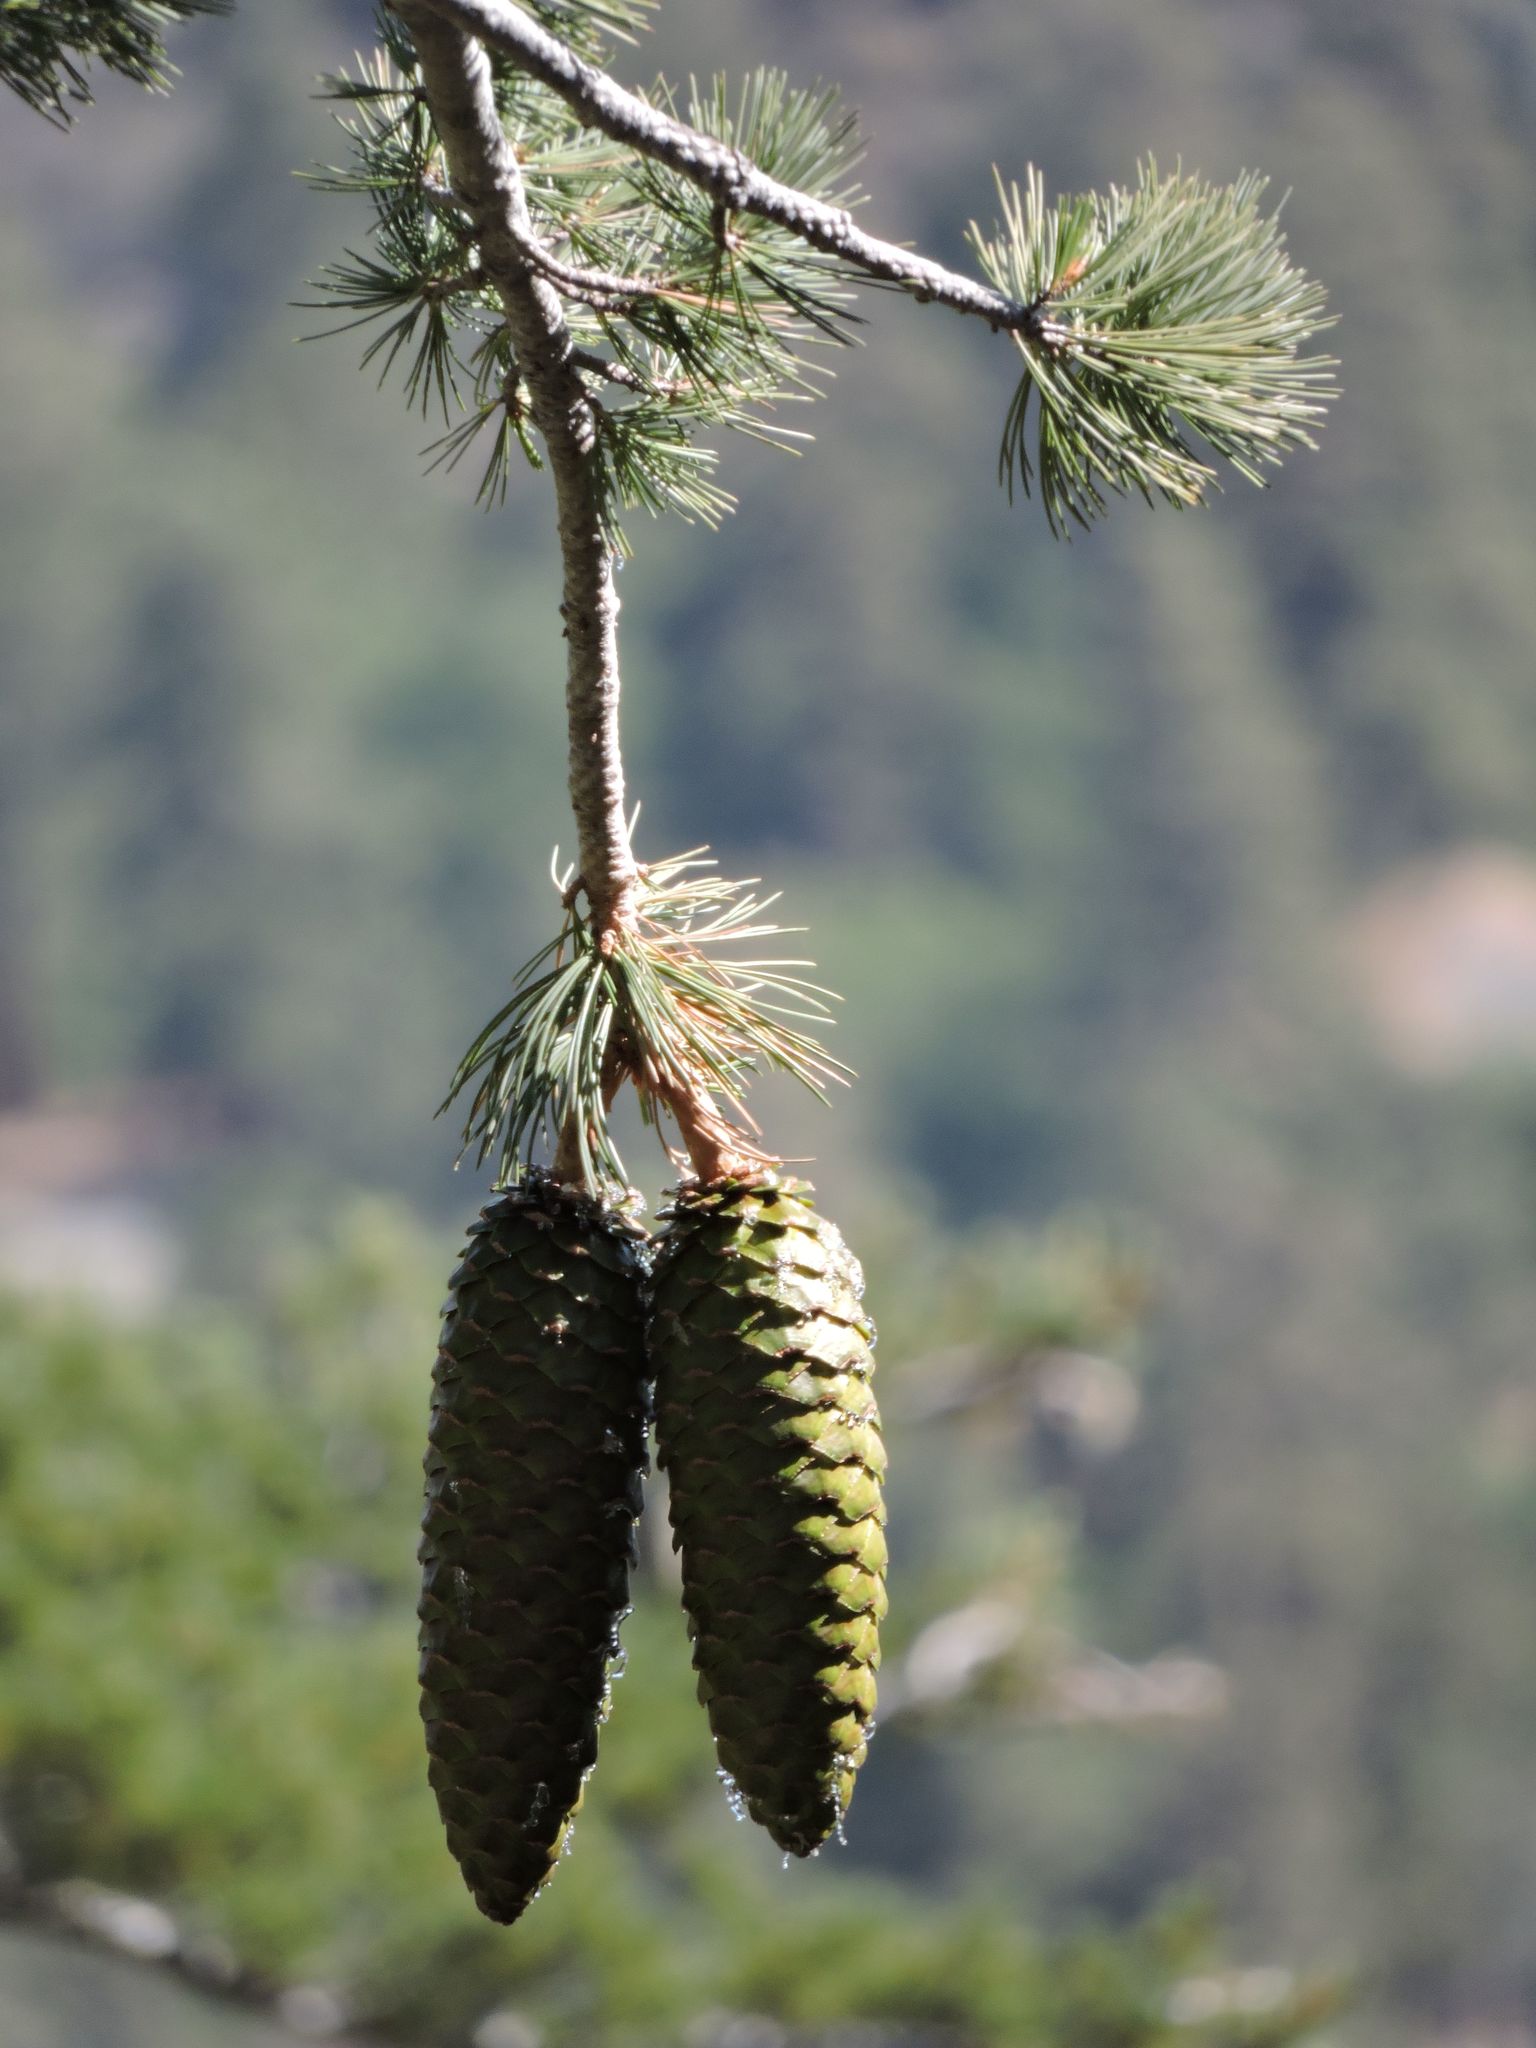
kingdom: Plantae
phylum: Tracheophyta
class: Pinopsida
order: Pinales
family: Pinaceae
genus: Pinus
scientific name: Pinus lambertiana
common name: Sugar pine
